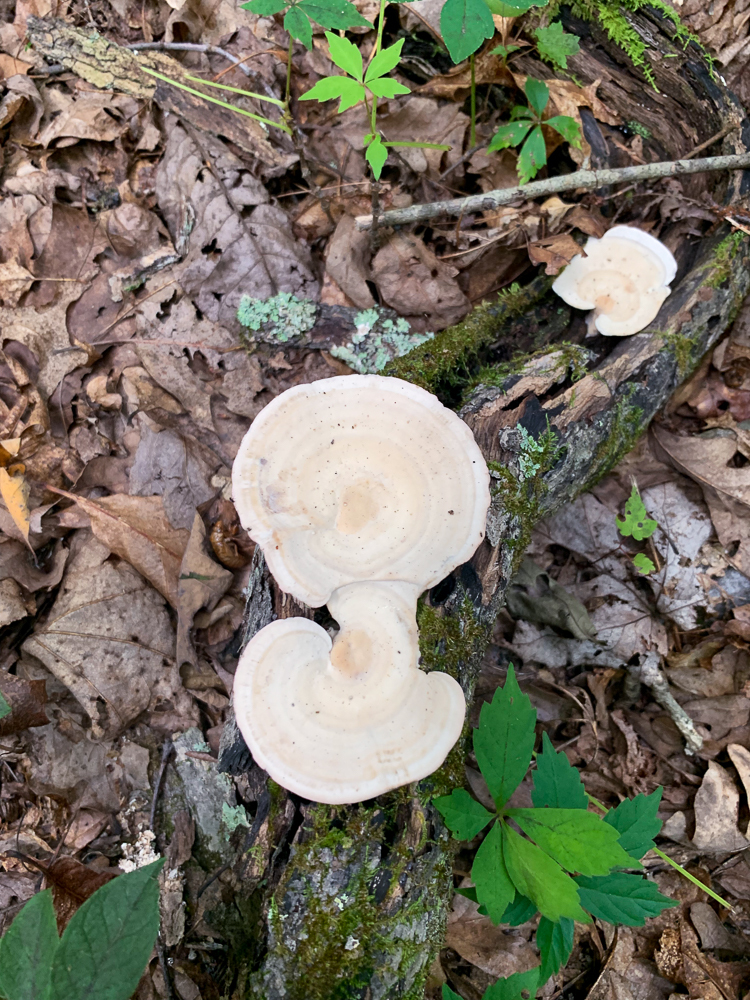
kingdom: Fungi
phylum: Basidiomycota
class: Agaricomycetes
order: Polyporales
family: Polyporaceae
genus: Trametes
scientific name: Trametes
